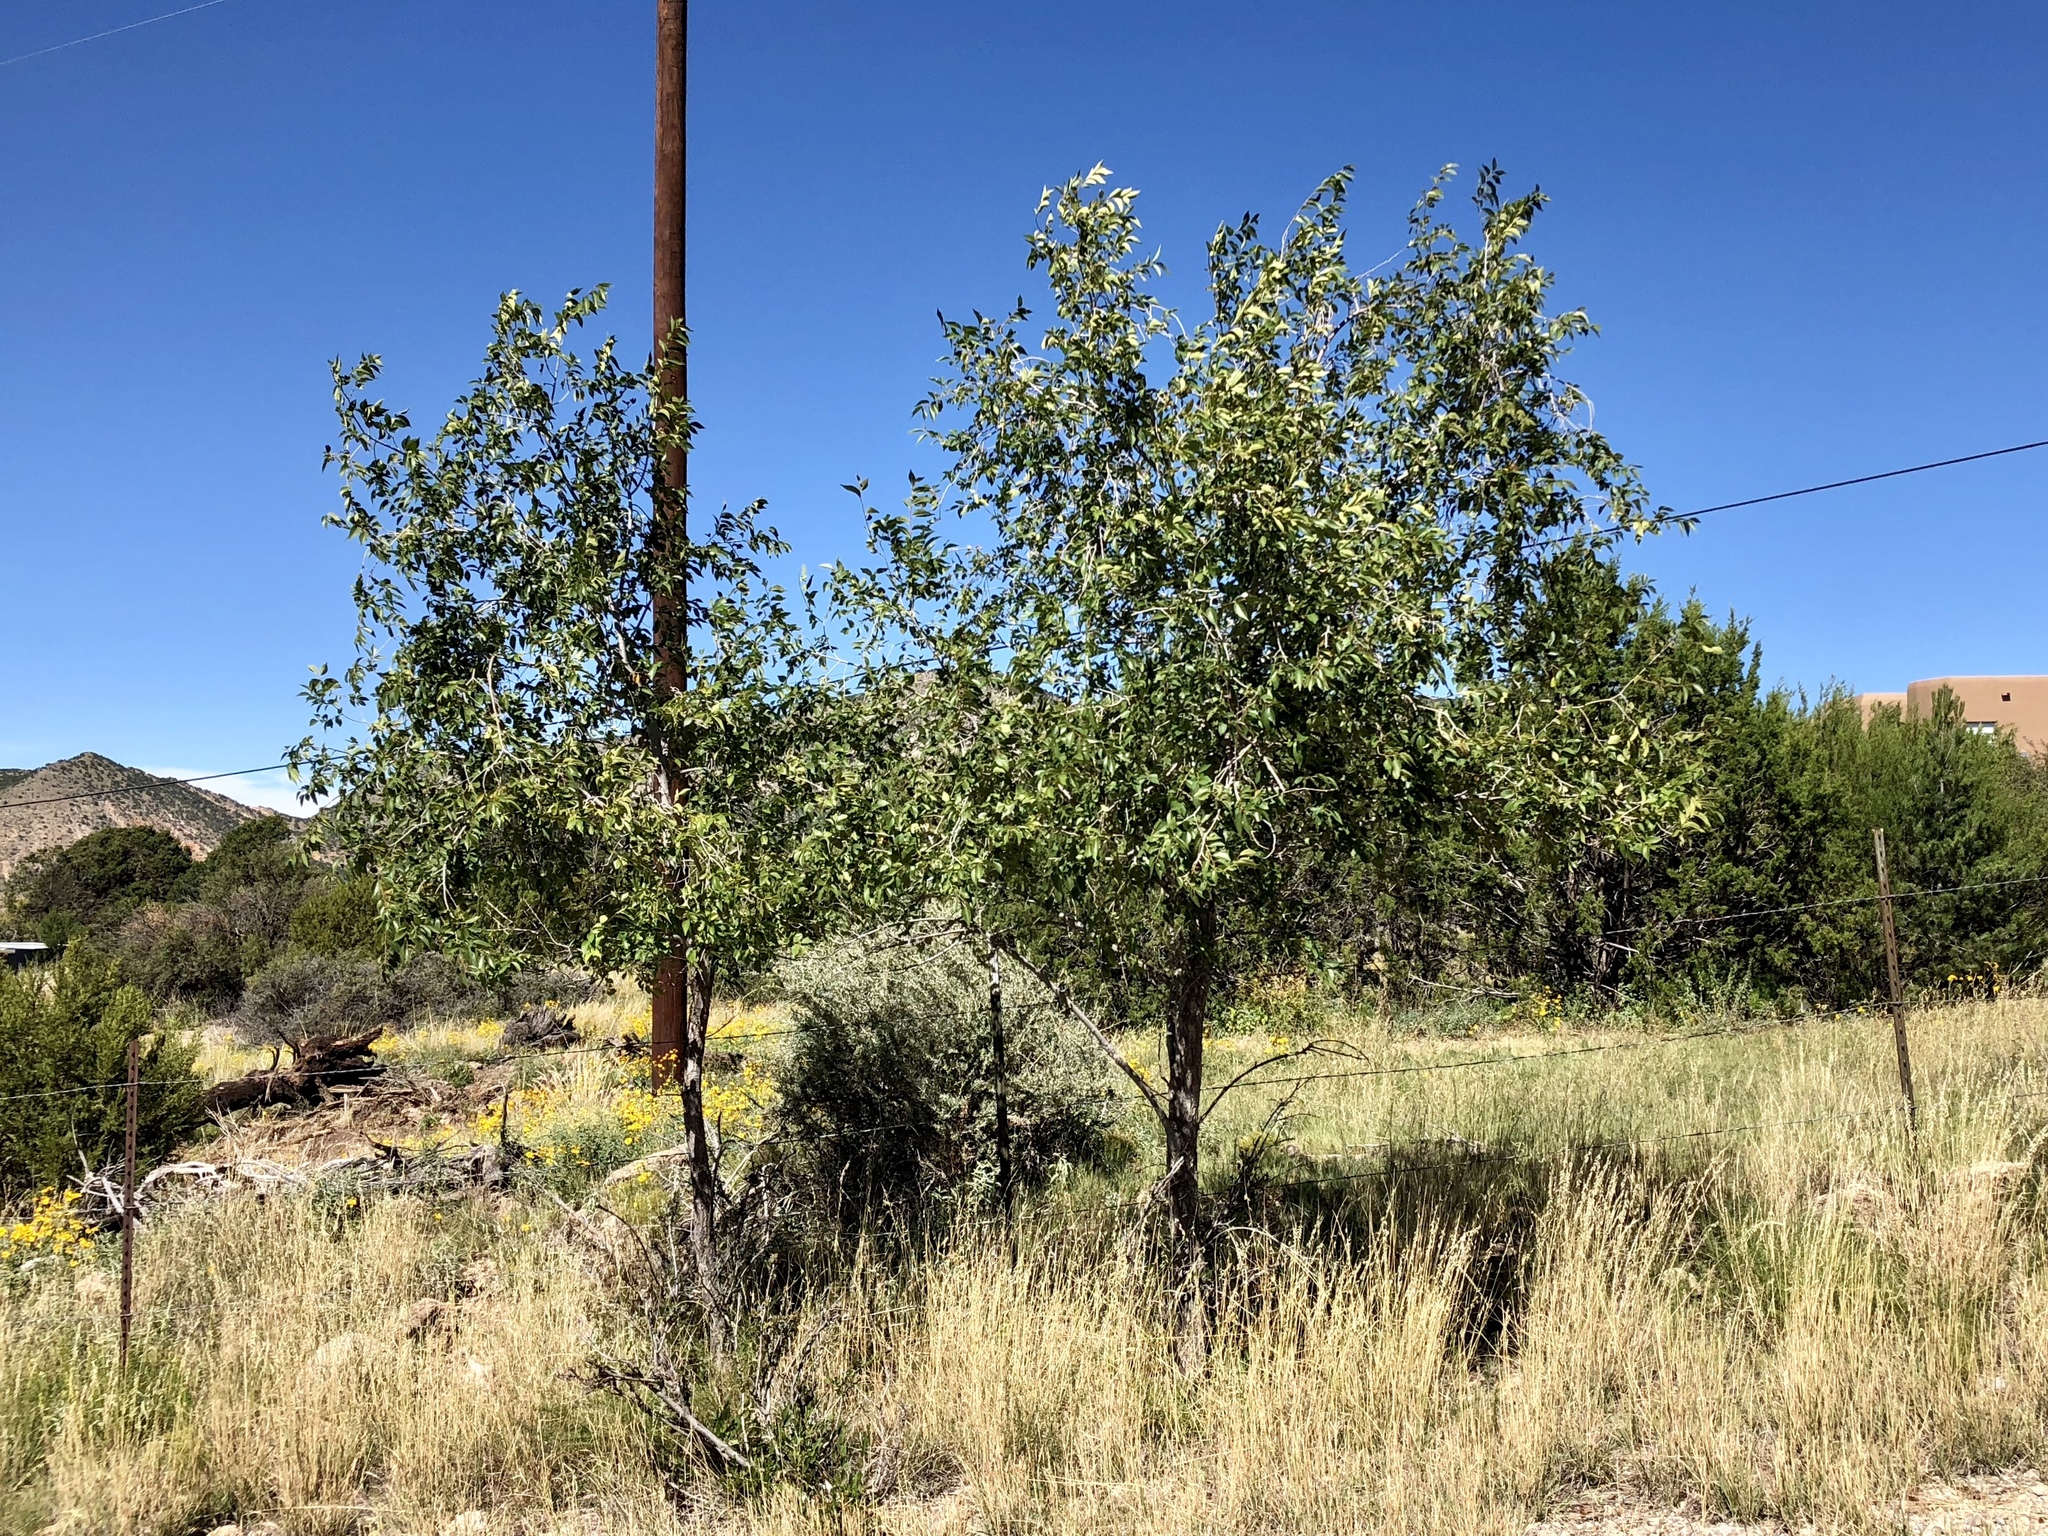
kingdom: Plantae
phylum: Tracheophyta
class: Magnoliopsida
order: Rosales
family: Ulmaceae
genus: Ulmus
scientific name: Ulmus pumila
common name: Siberian elm
